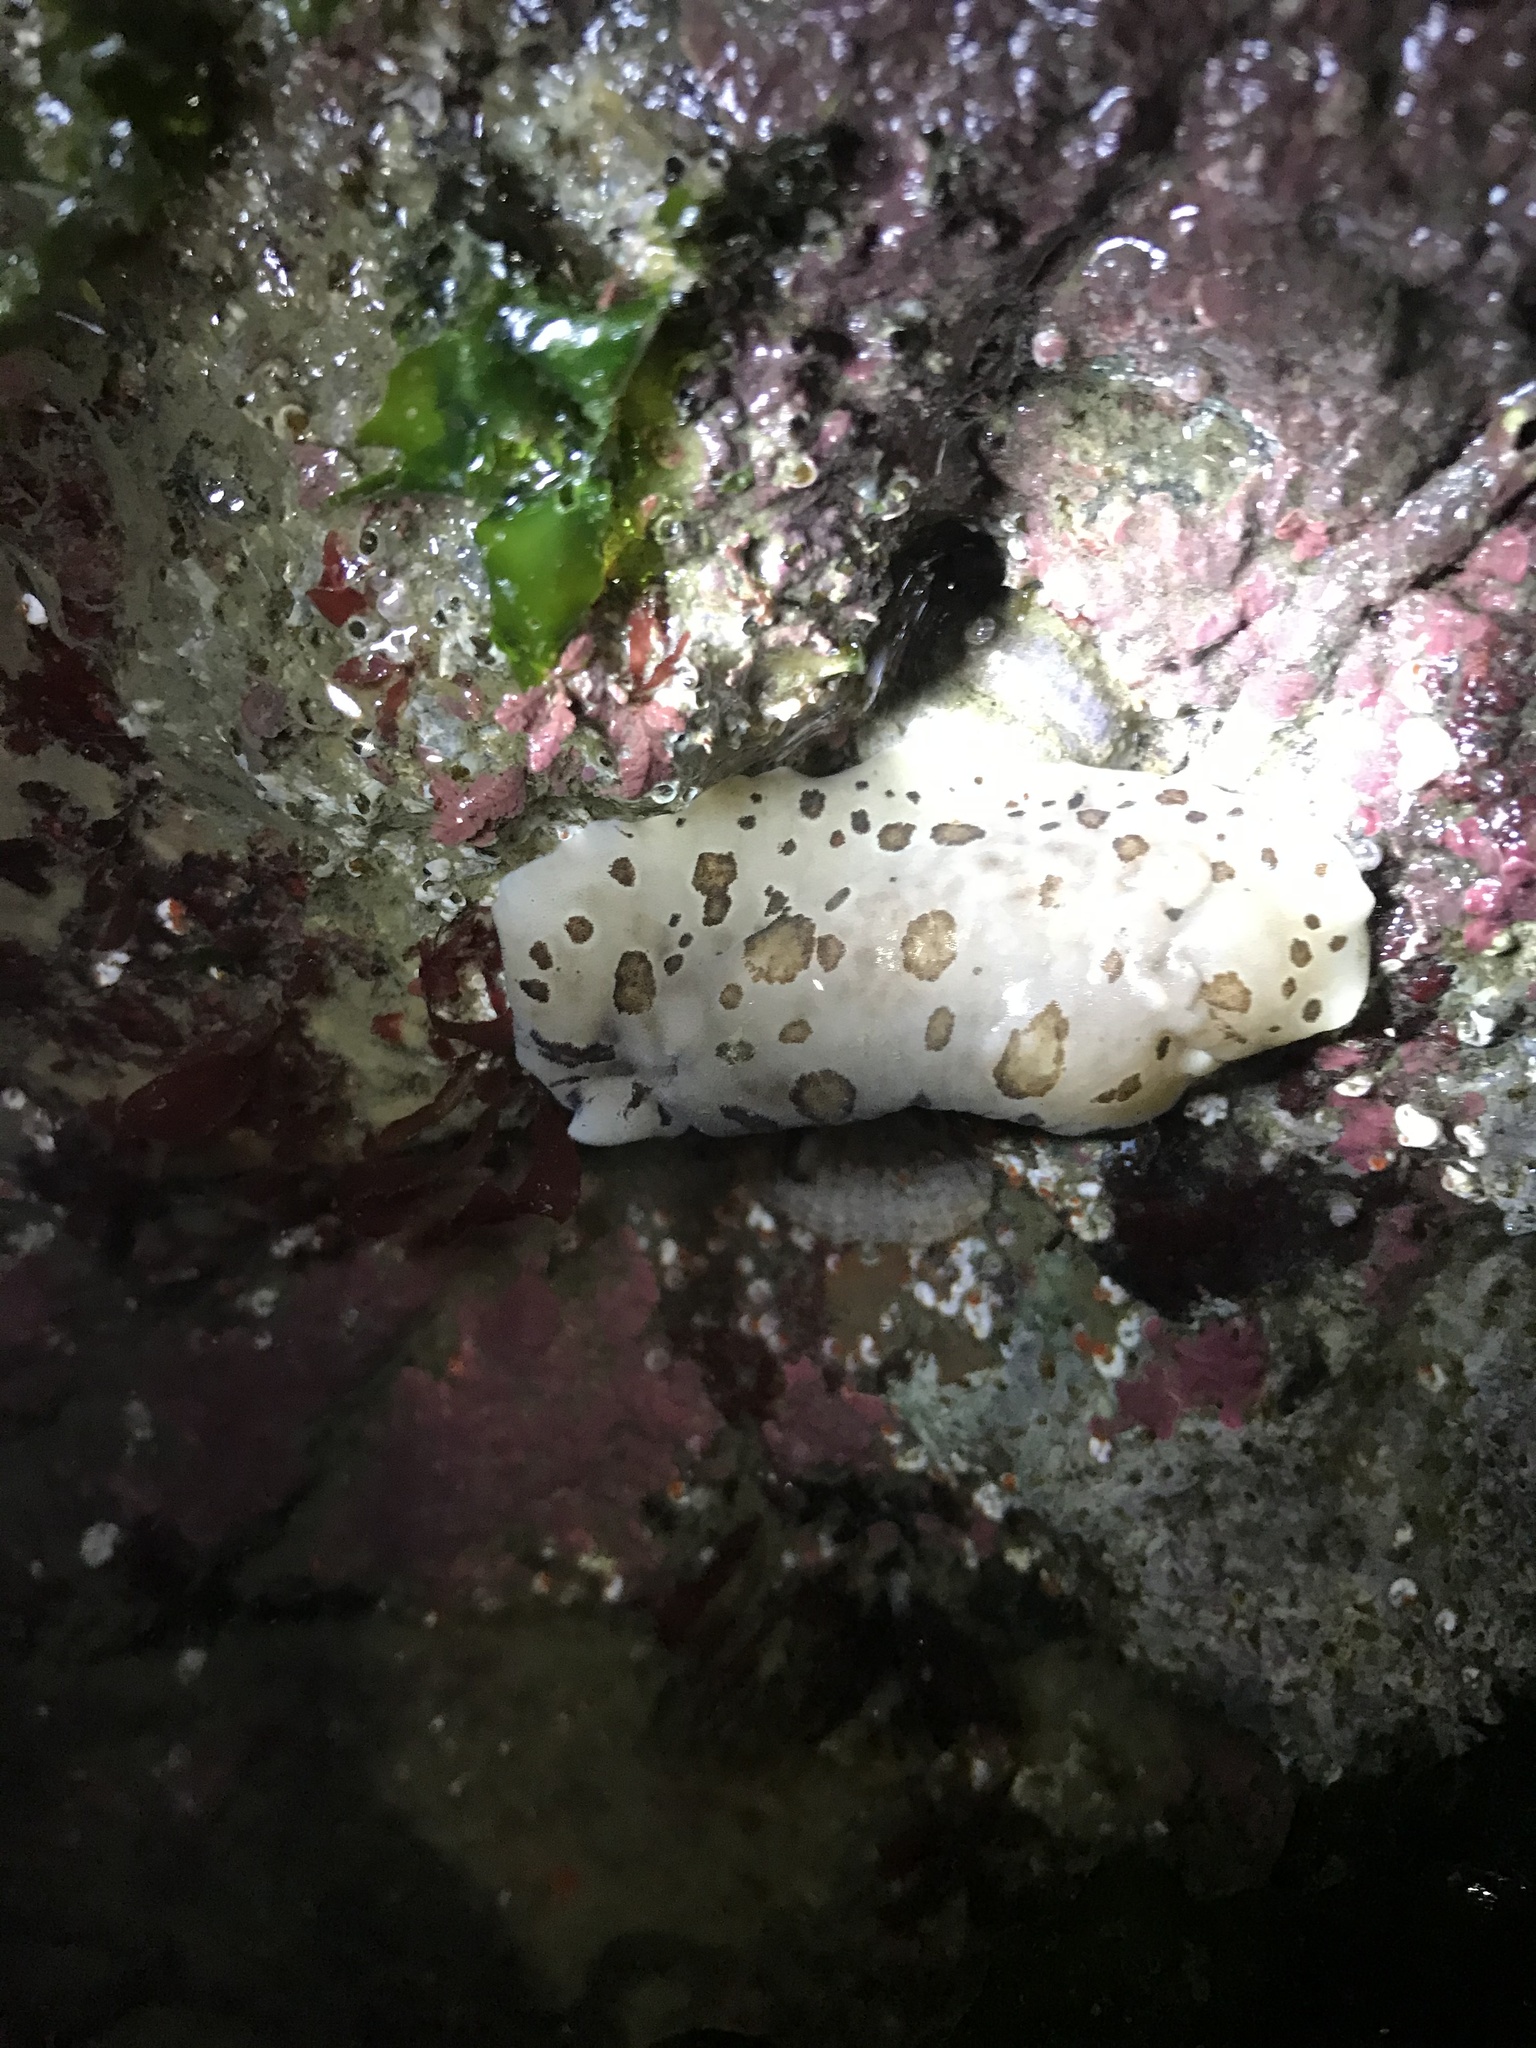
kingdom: Animalia
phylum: Mollusca
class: Gastropoda
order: Nudibranchia
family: Discodorididae
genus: Diaulula
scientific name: Diaulula odonoghuei
